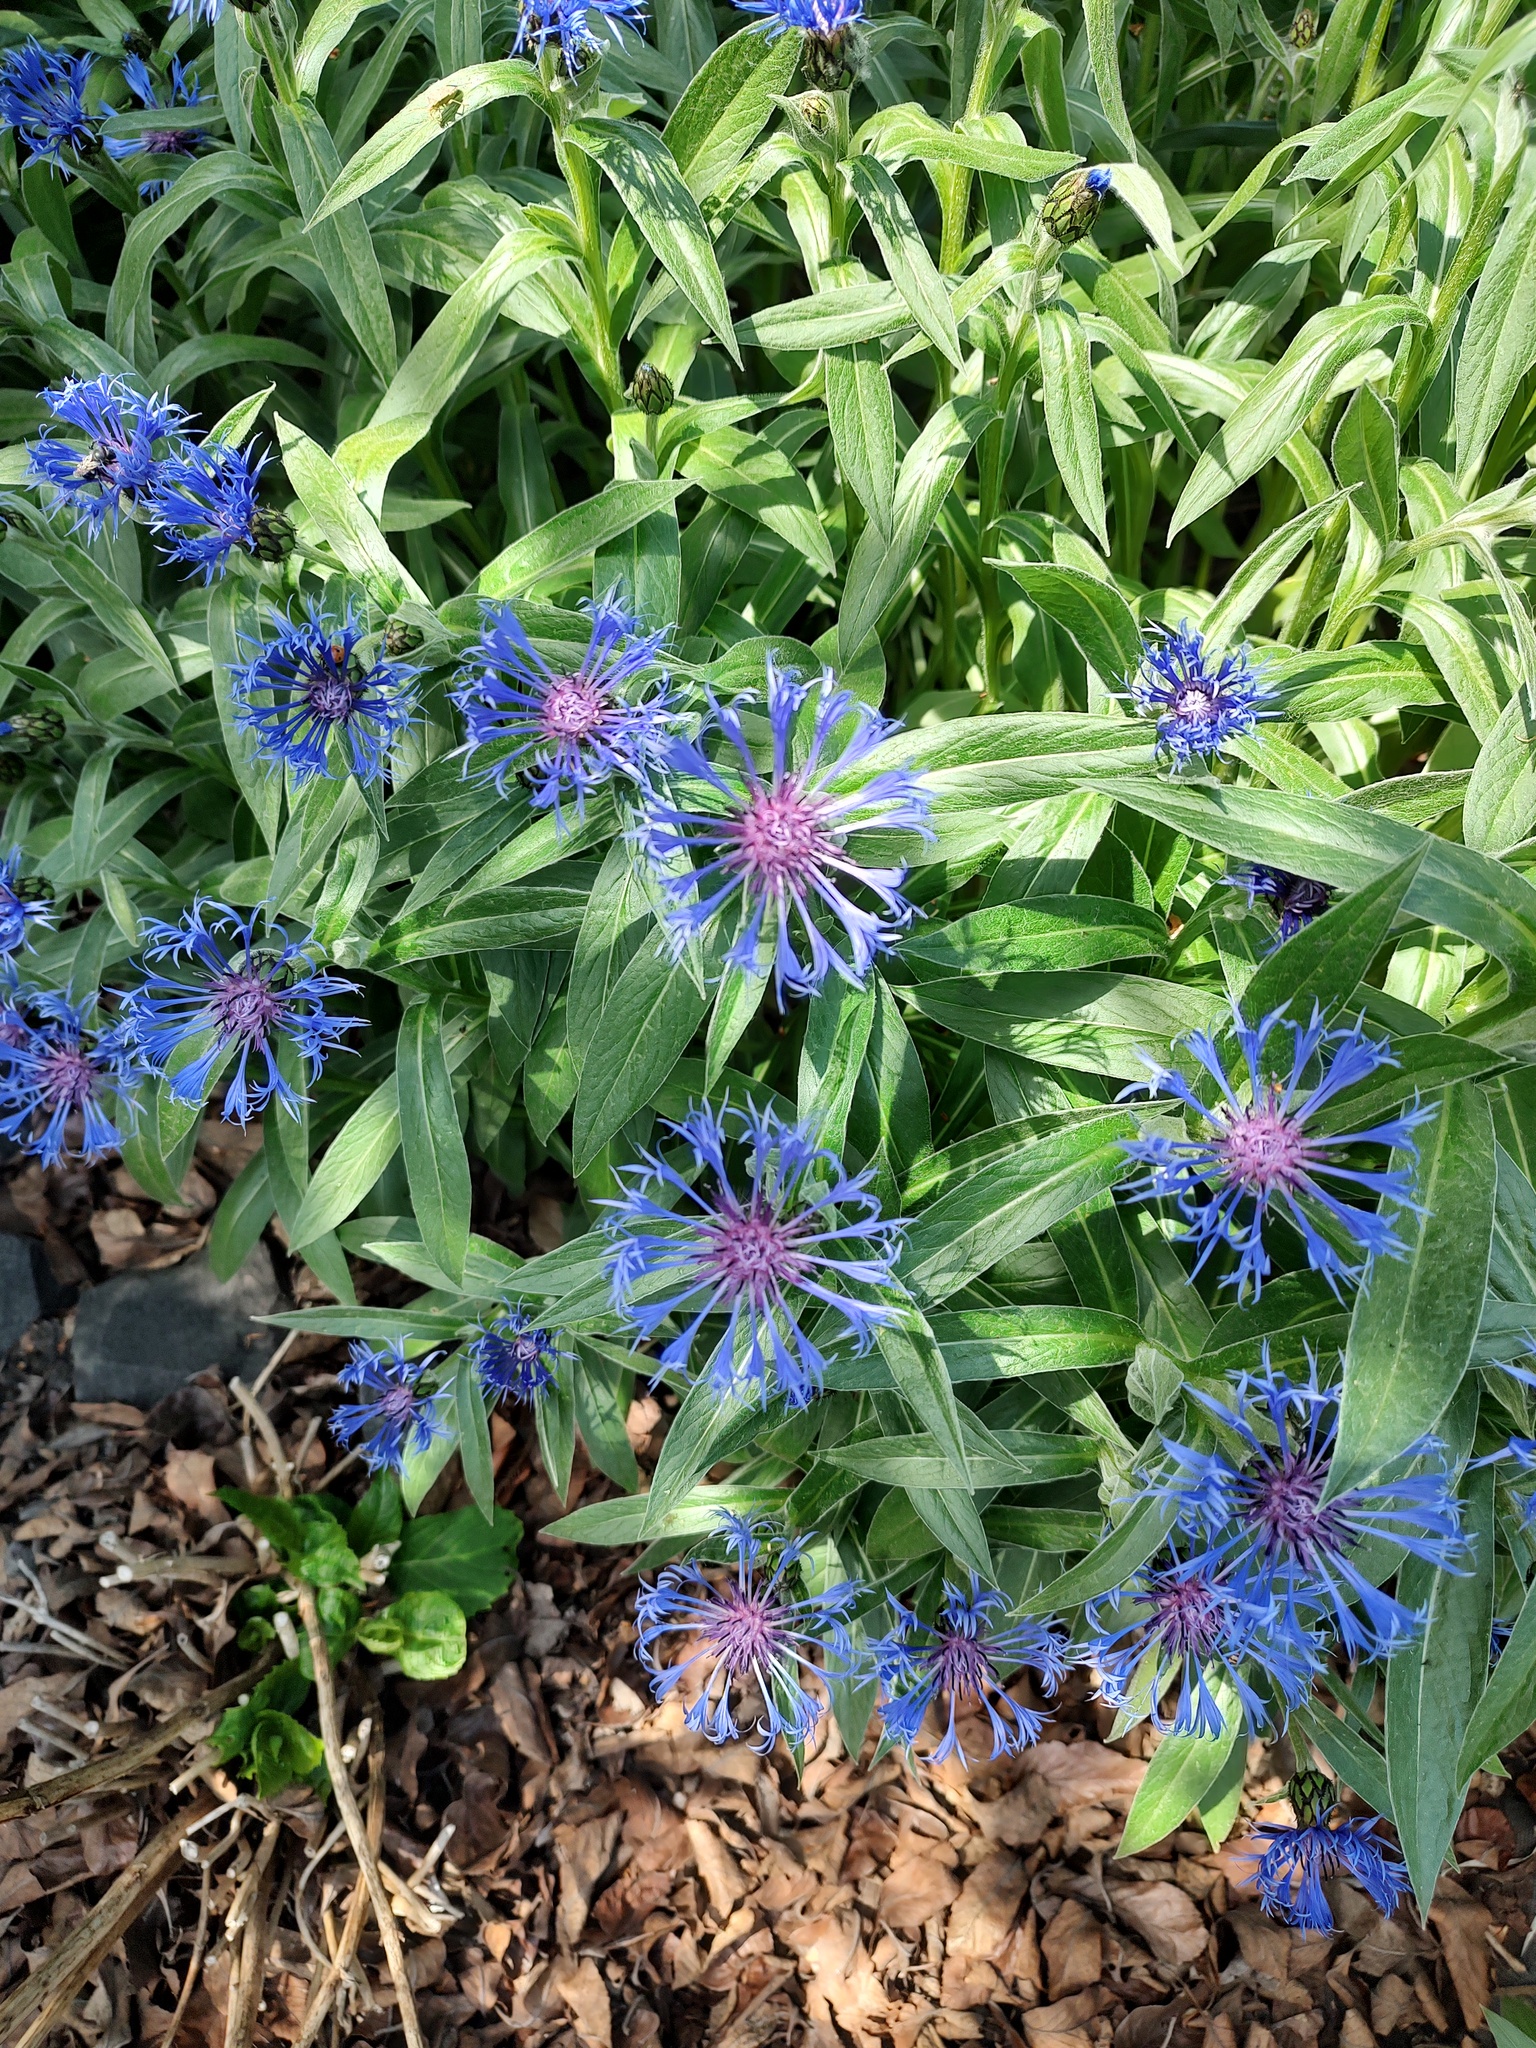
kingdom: Plantae
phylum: Tracheophyta
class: Magnoliopsida
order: Asterales
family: Asteraceae
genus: Centaurea
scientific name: Centaurea montana
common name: Perennial cornflower
